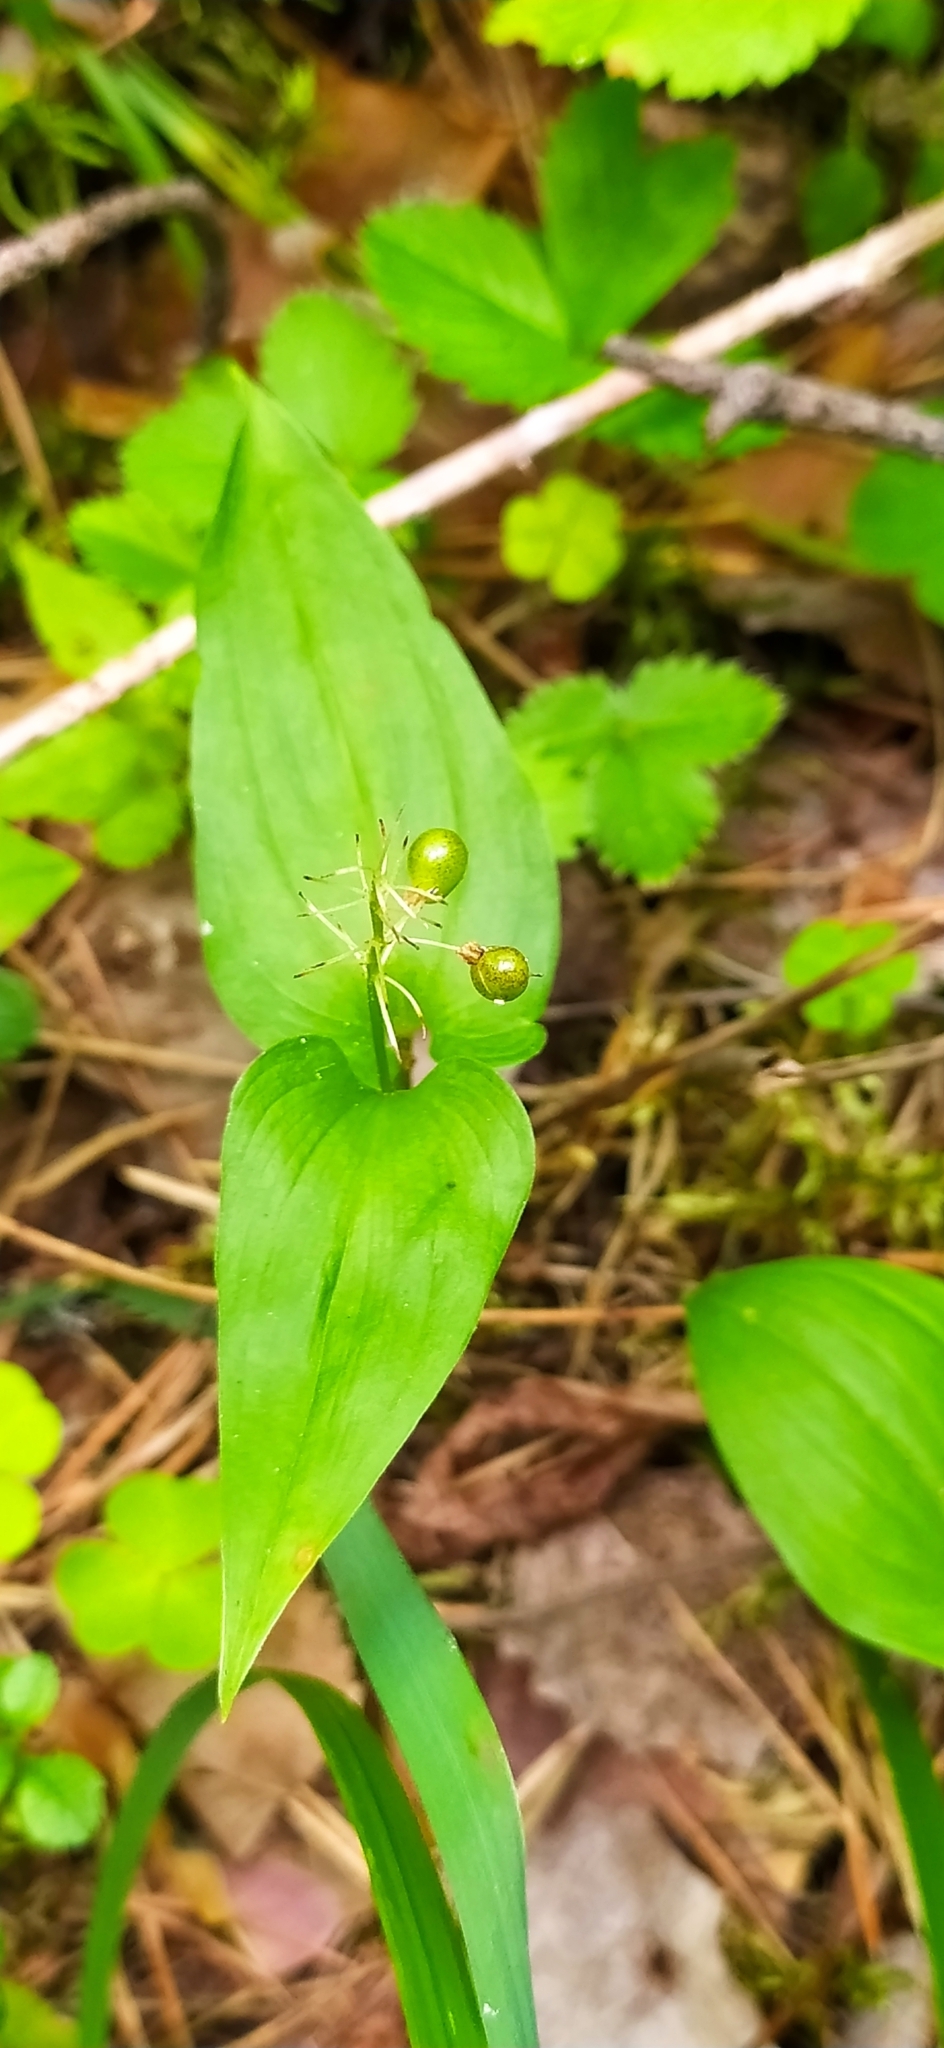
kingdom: Plantae
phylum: Tracheophyta
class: Liliopsida
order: Asparagales
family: Asparagaceae
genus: Maianthemum
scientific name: Maianthemum bifolium
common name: May lily
